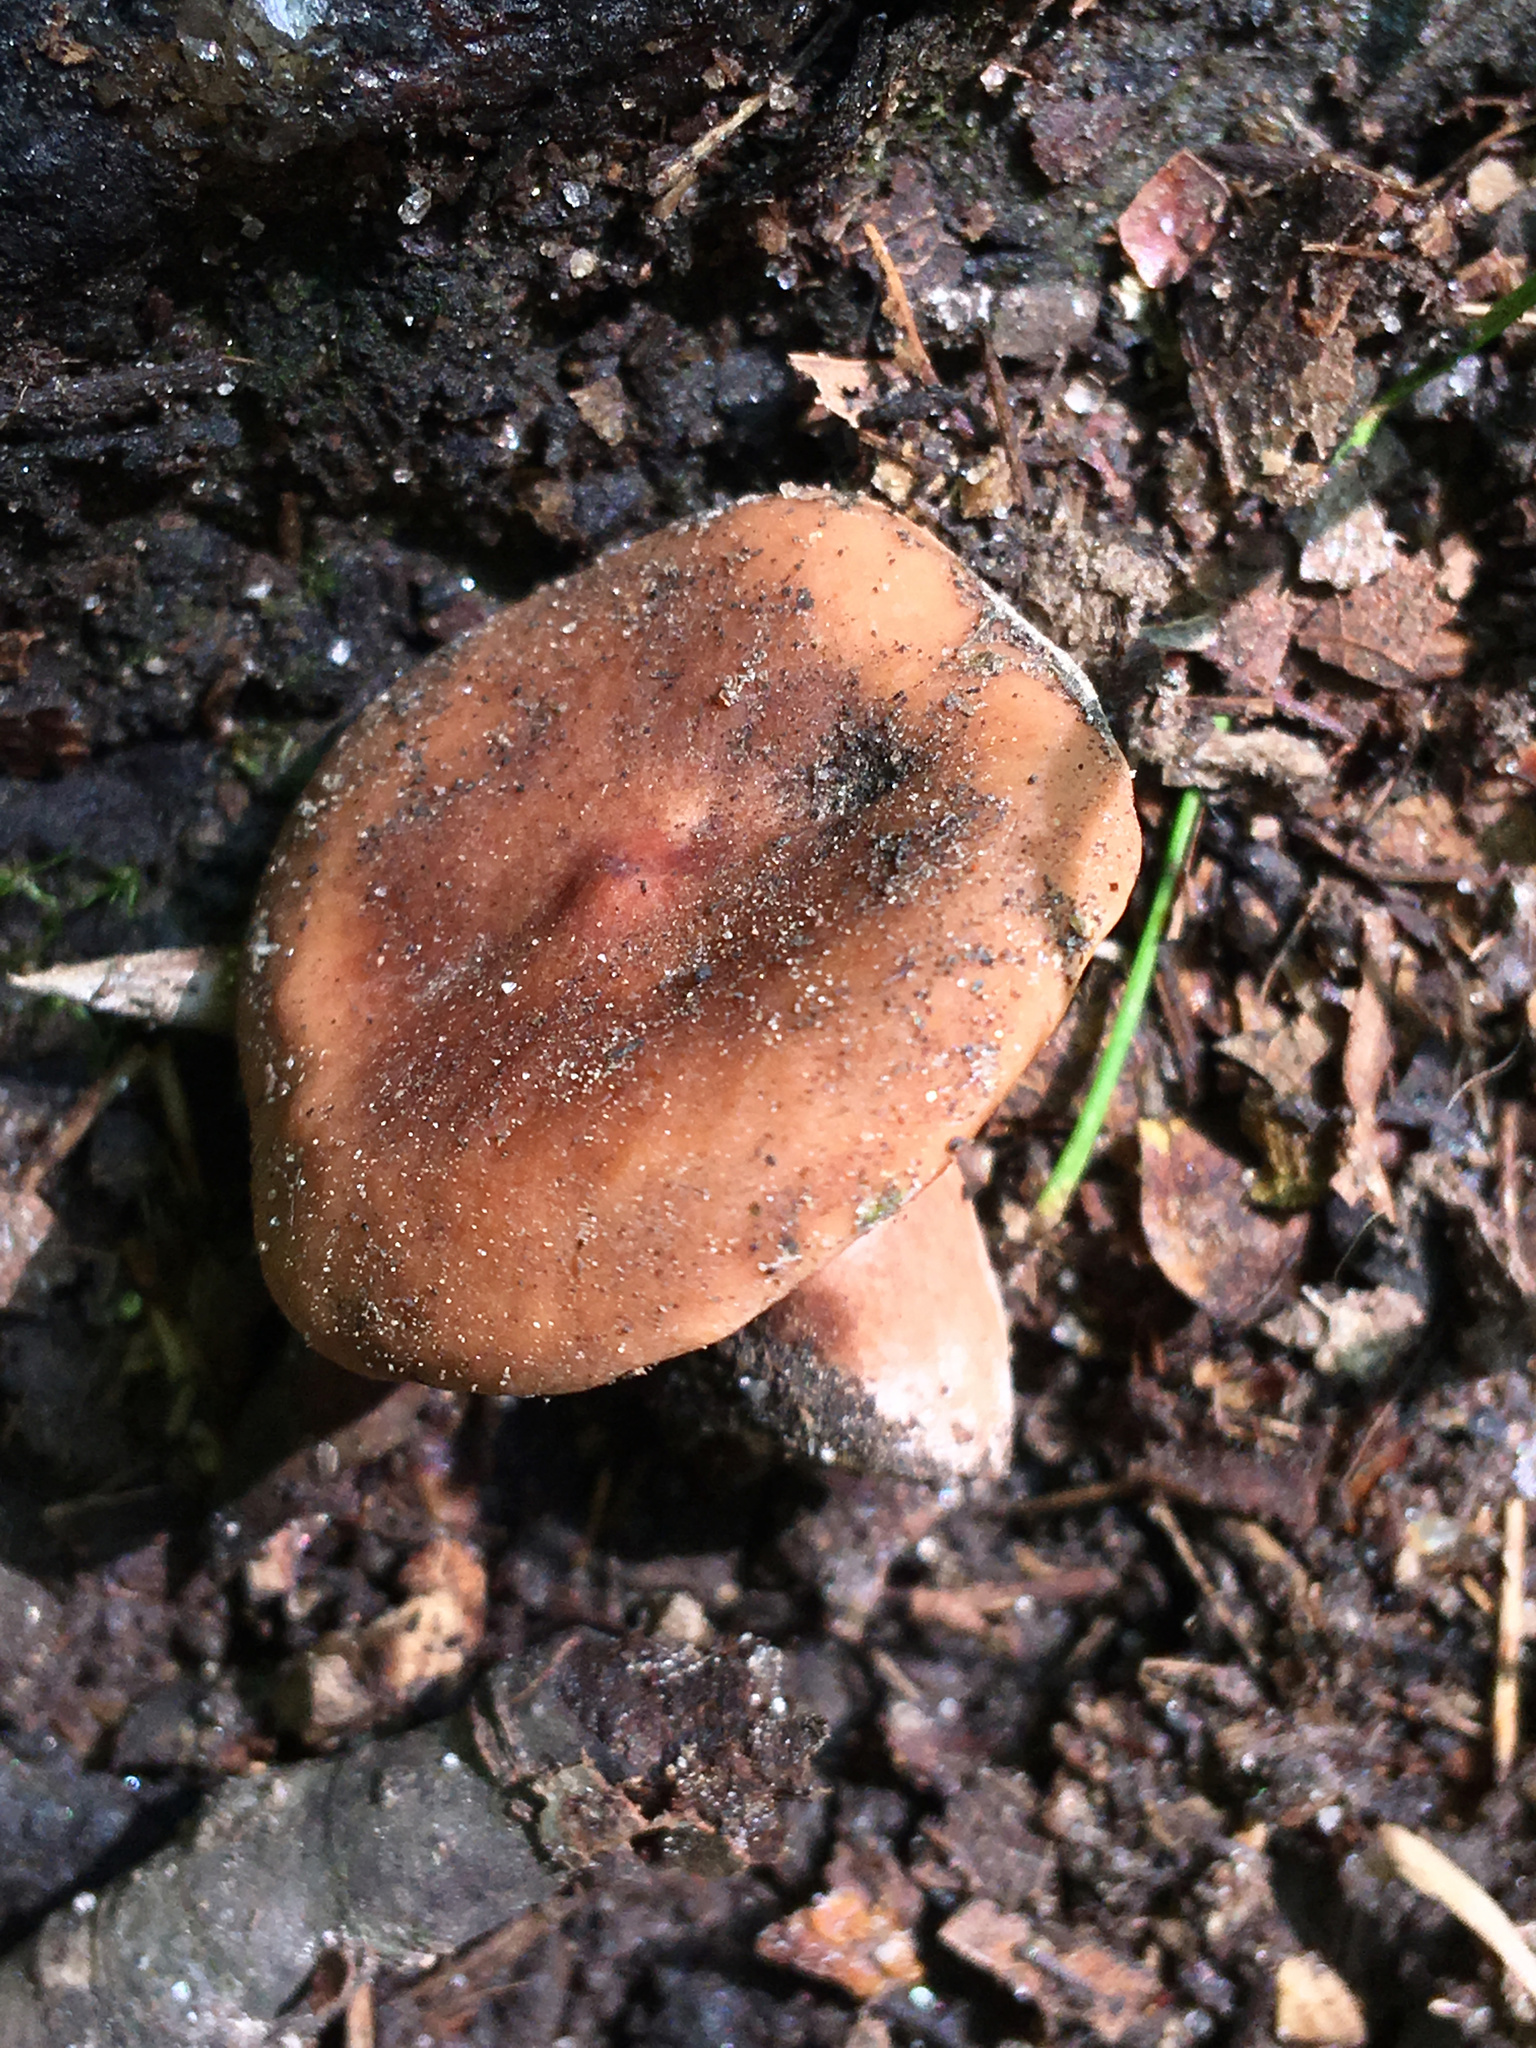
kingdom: Fungi
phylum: Basidiomycota
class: Agaricomycetes
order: Russulales
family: Russulaceae
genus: Lactarius
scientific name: Lactarius mutabilis
